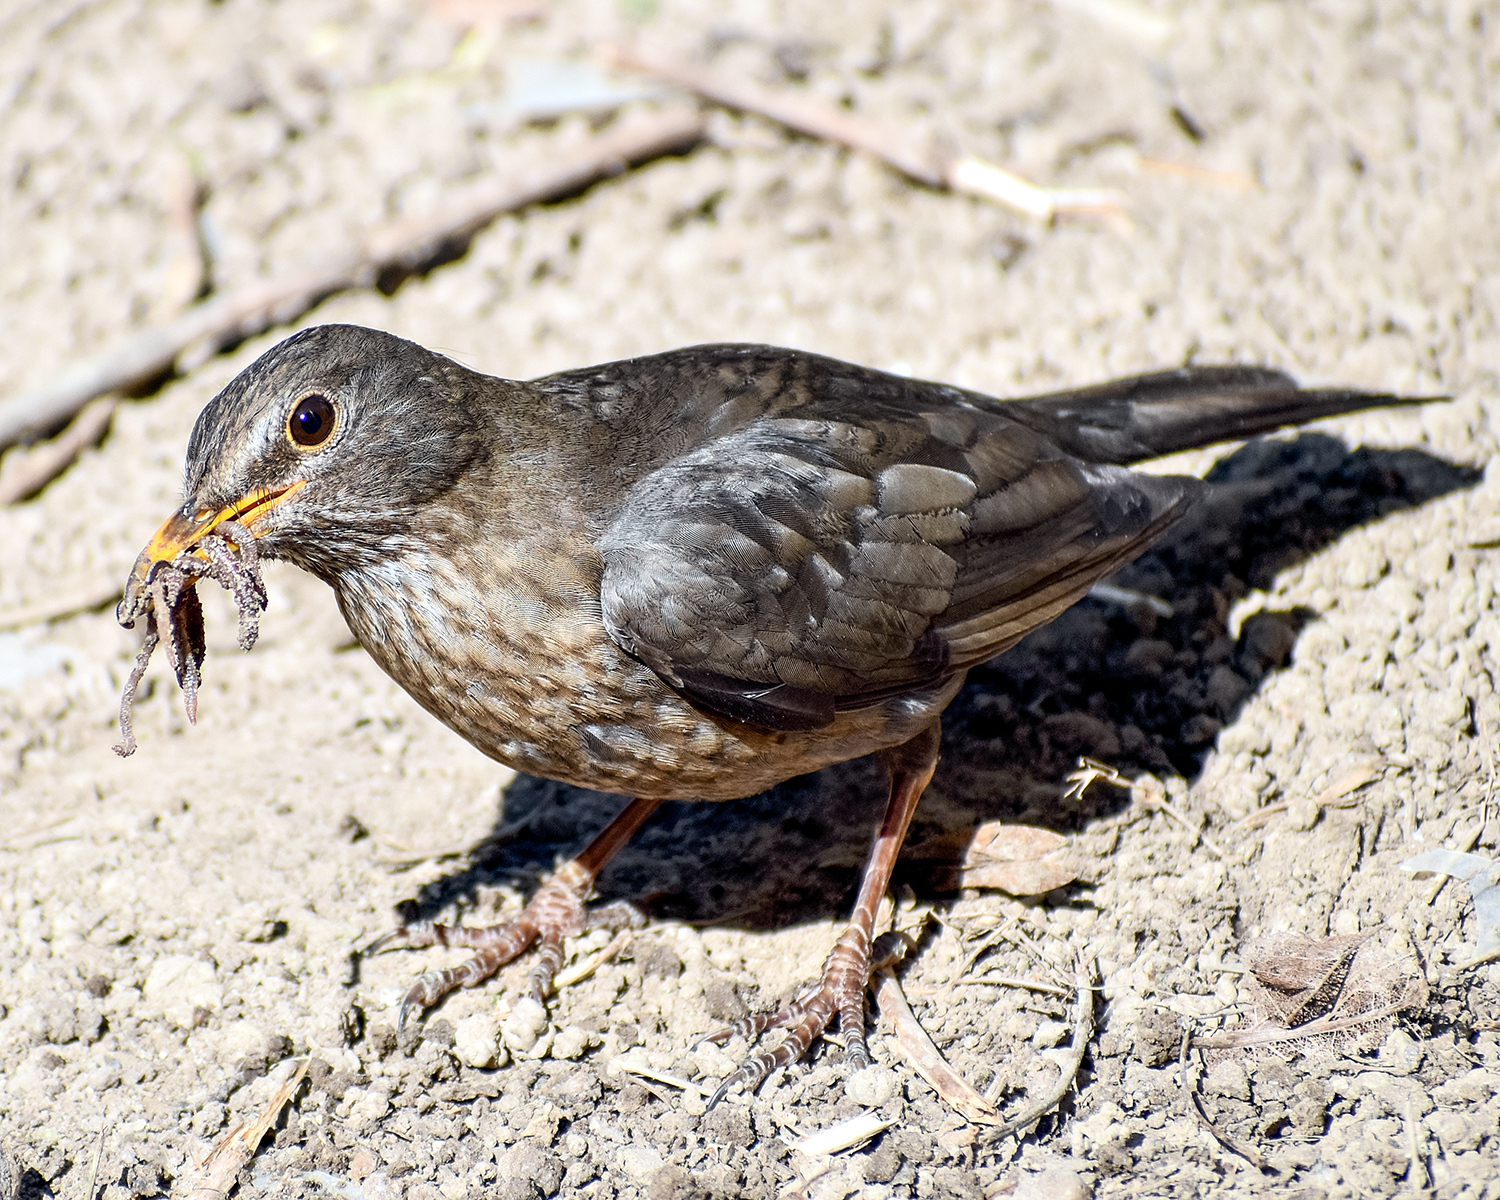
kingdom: Animalia
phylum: Chordata
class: Aves
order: Passeriformes
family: Turdidae
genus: Turdus
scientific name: Turdus merula
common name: Common blackbird
